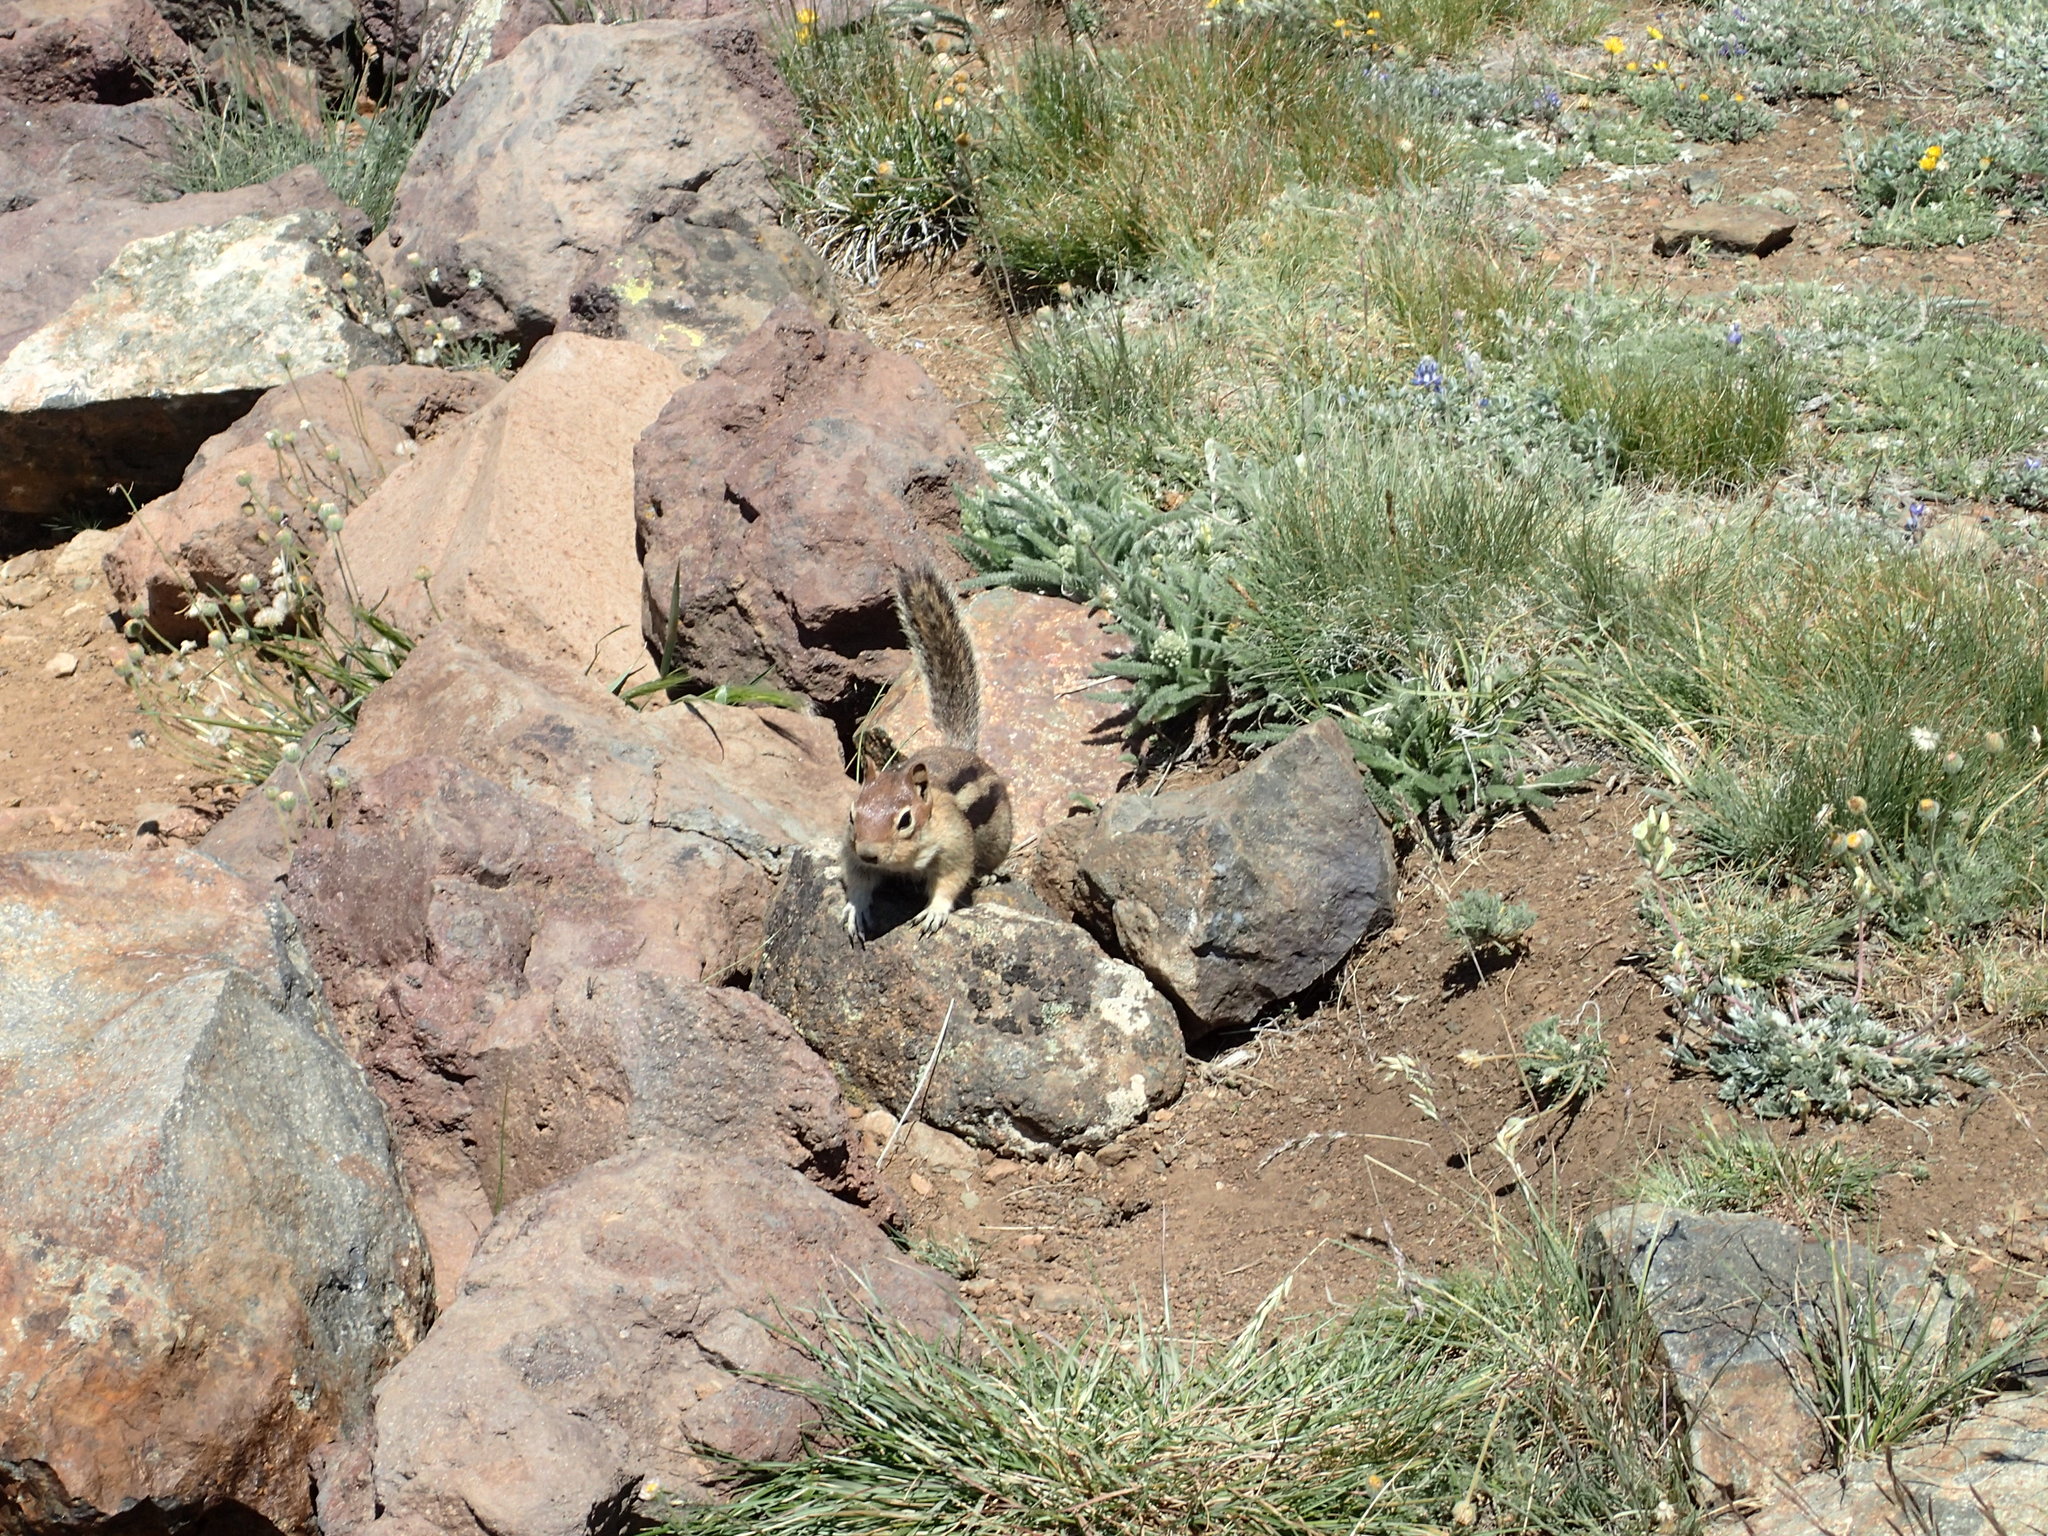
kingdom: Animalia
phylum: Chordata
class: Mammalia
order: Rodentia
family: Sciuridae
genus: Callospermophilus
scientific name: Callospermophilus lateralis
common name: Golden-mantled ground squirrel
